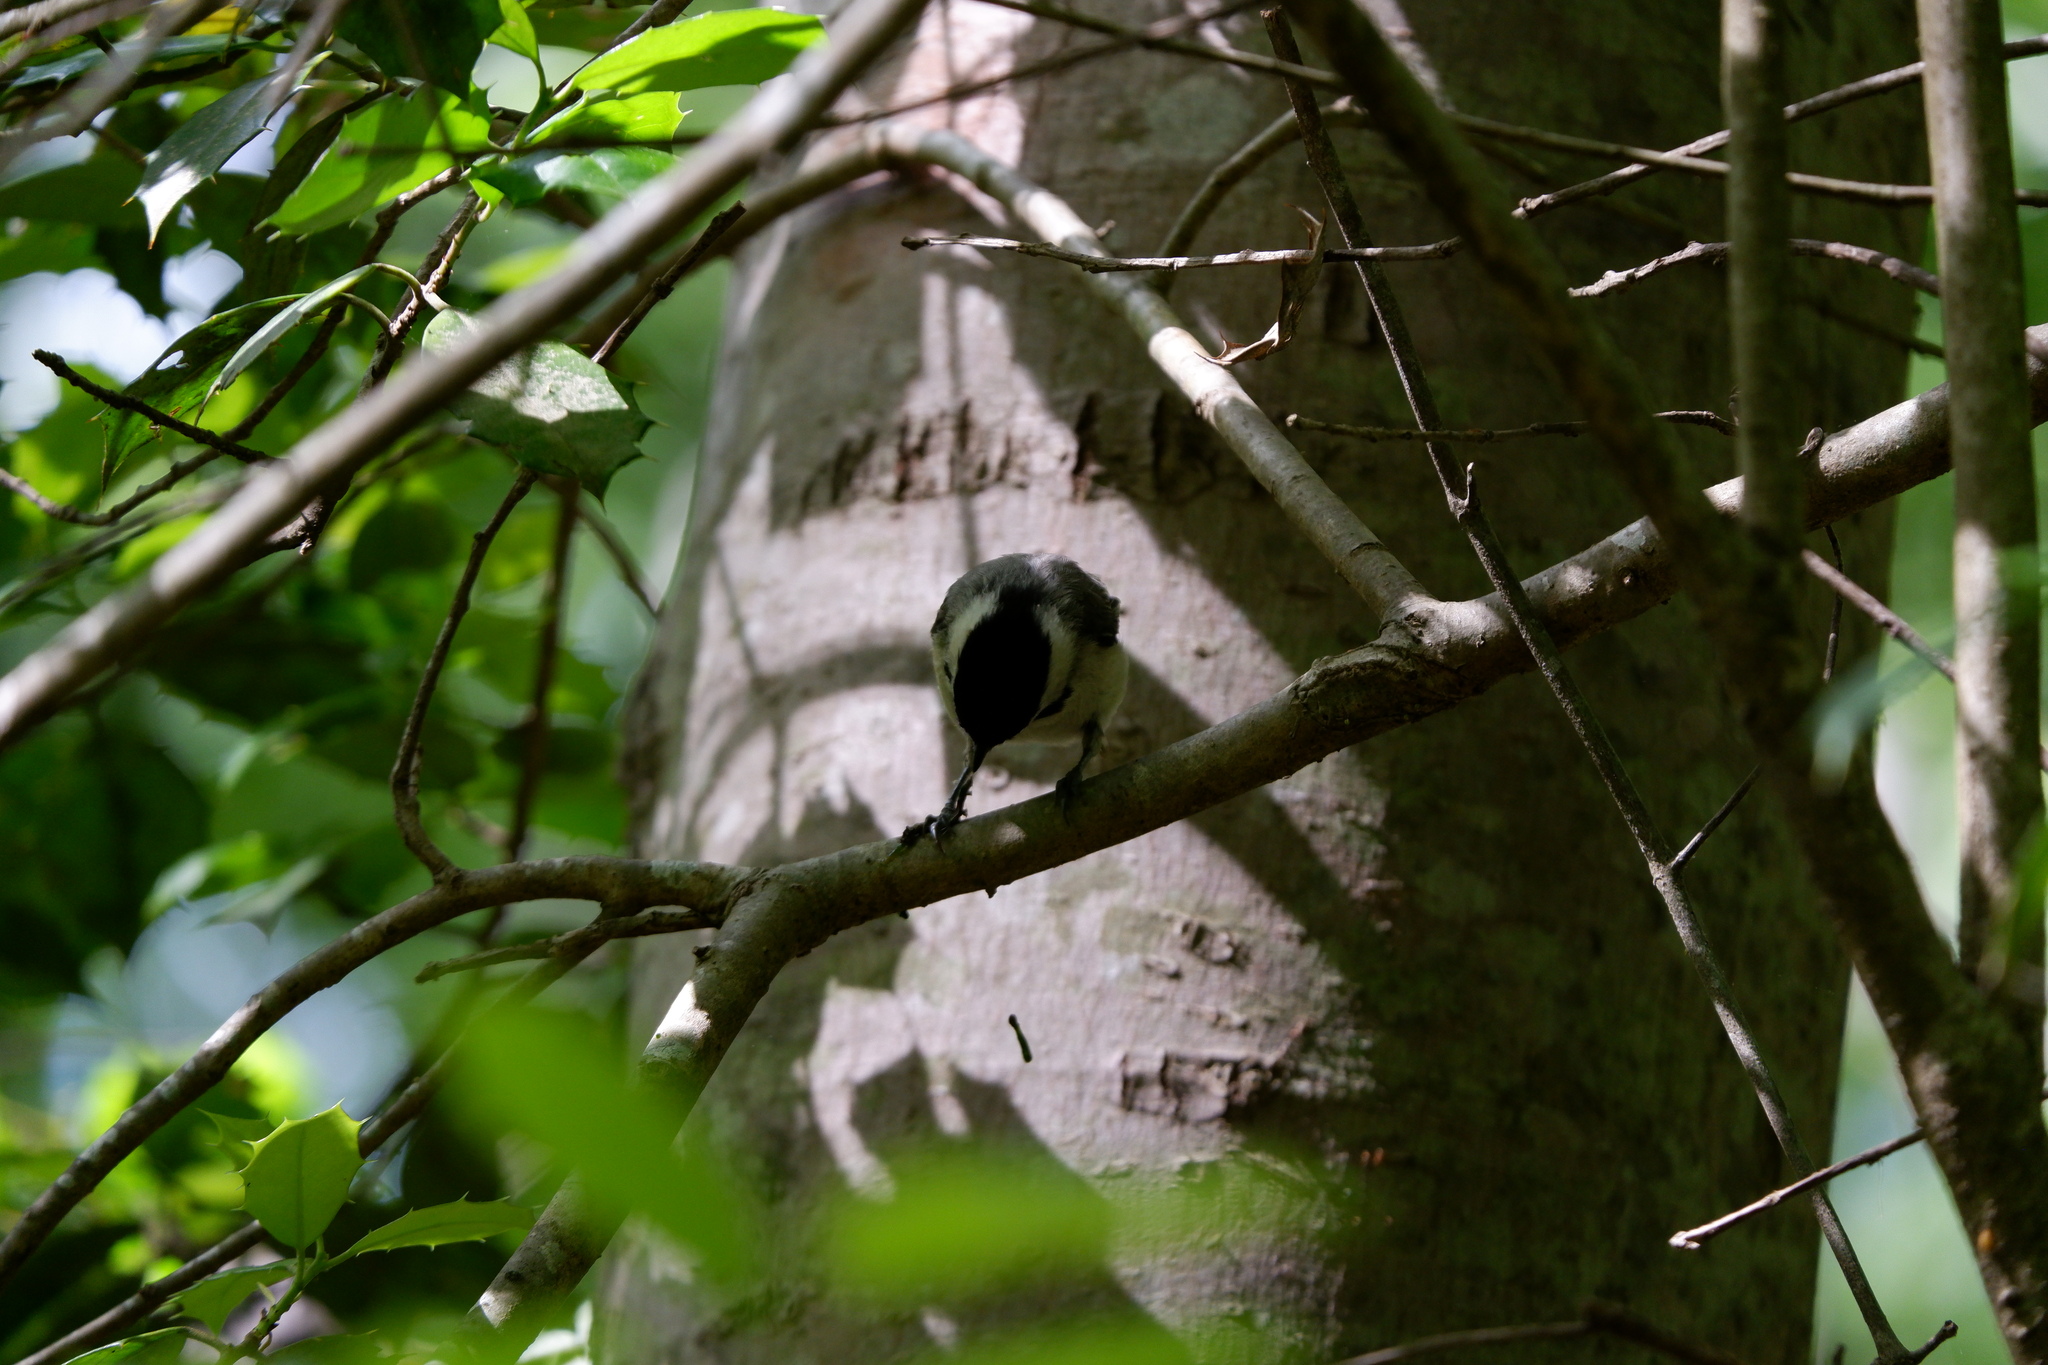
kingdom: Animalia
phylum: Chordata
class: Aves
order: Passeriformes
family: Paridae
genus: Poecile
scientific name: Poecile carolinensis
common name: Carolina chickadee
